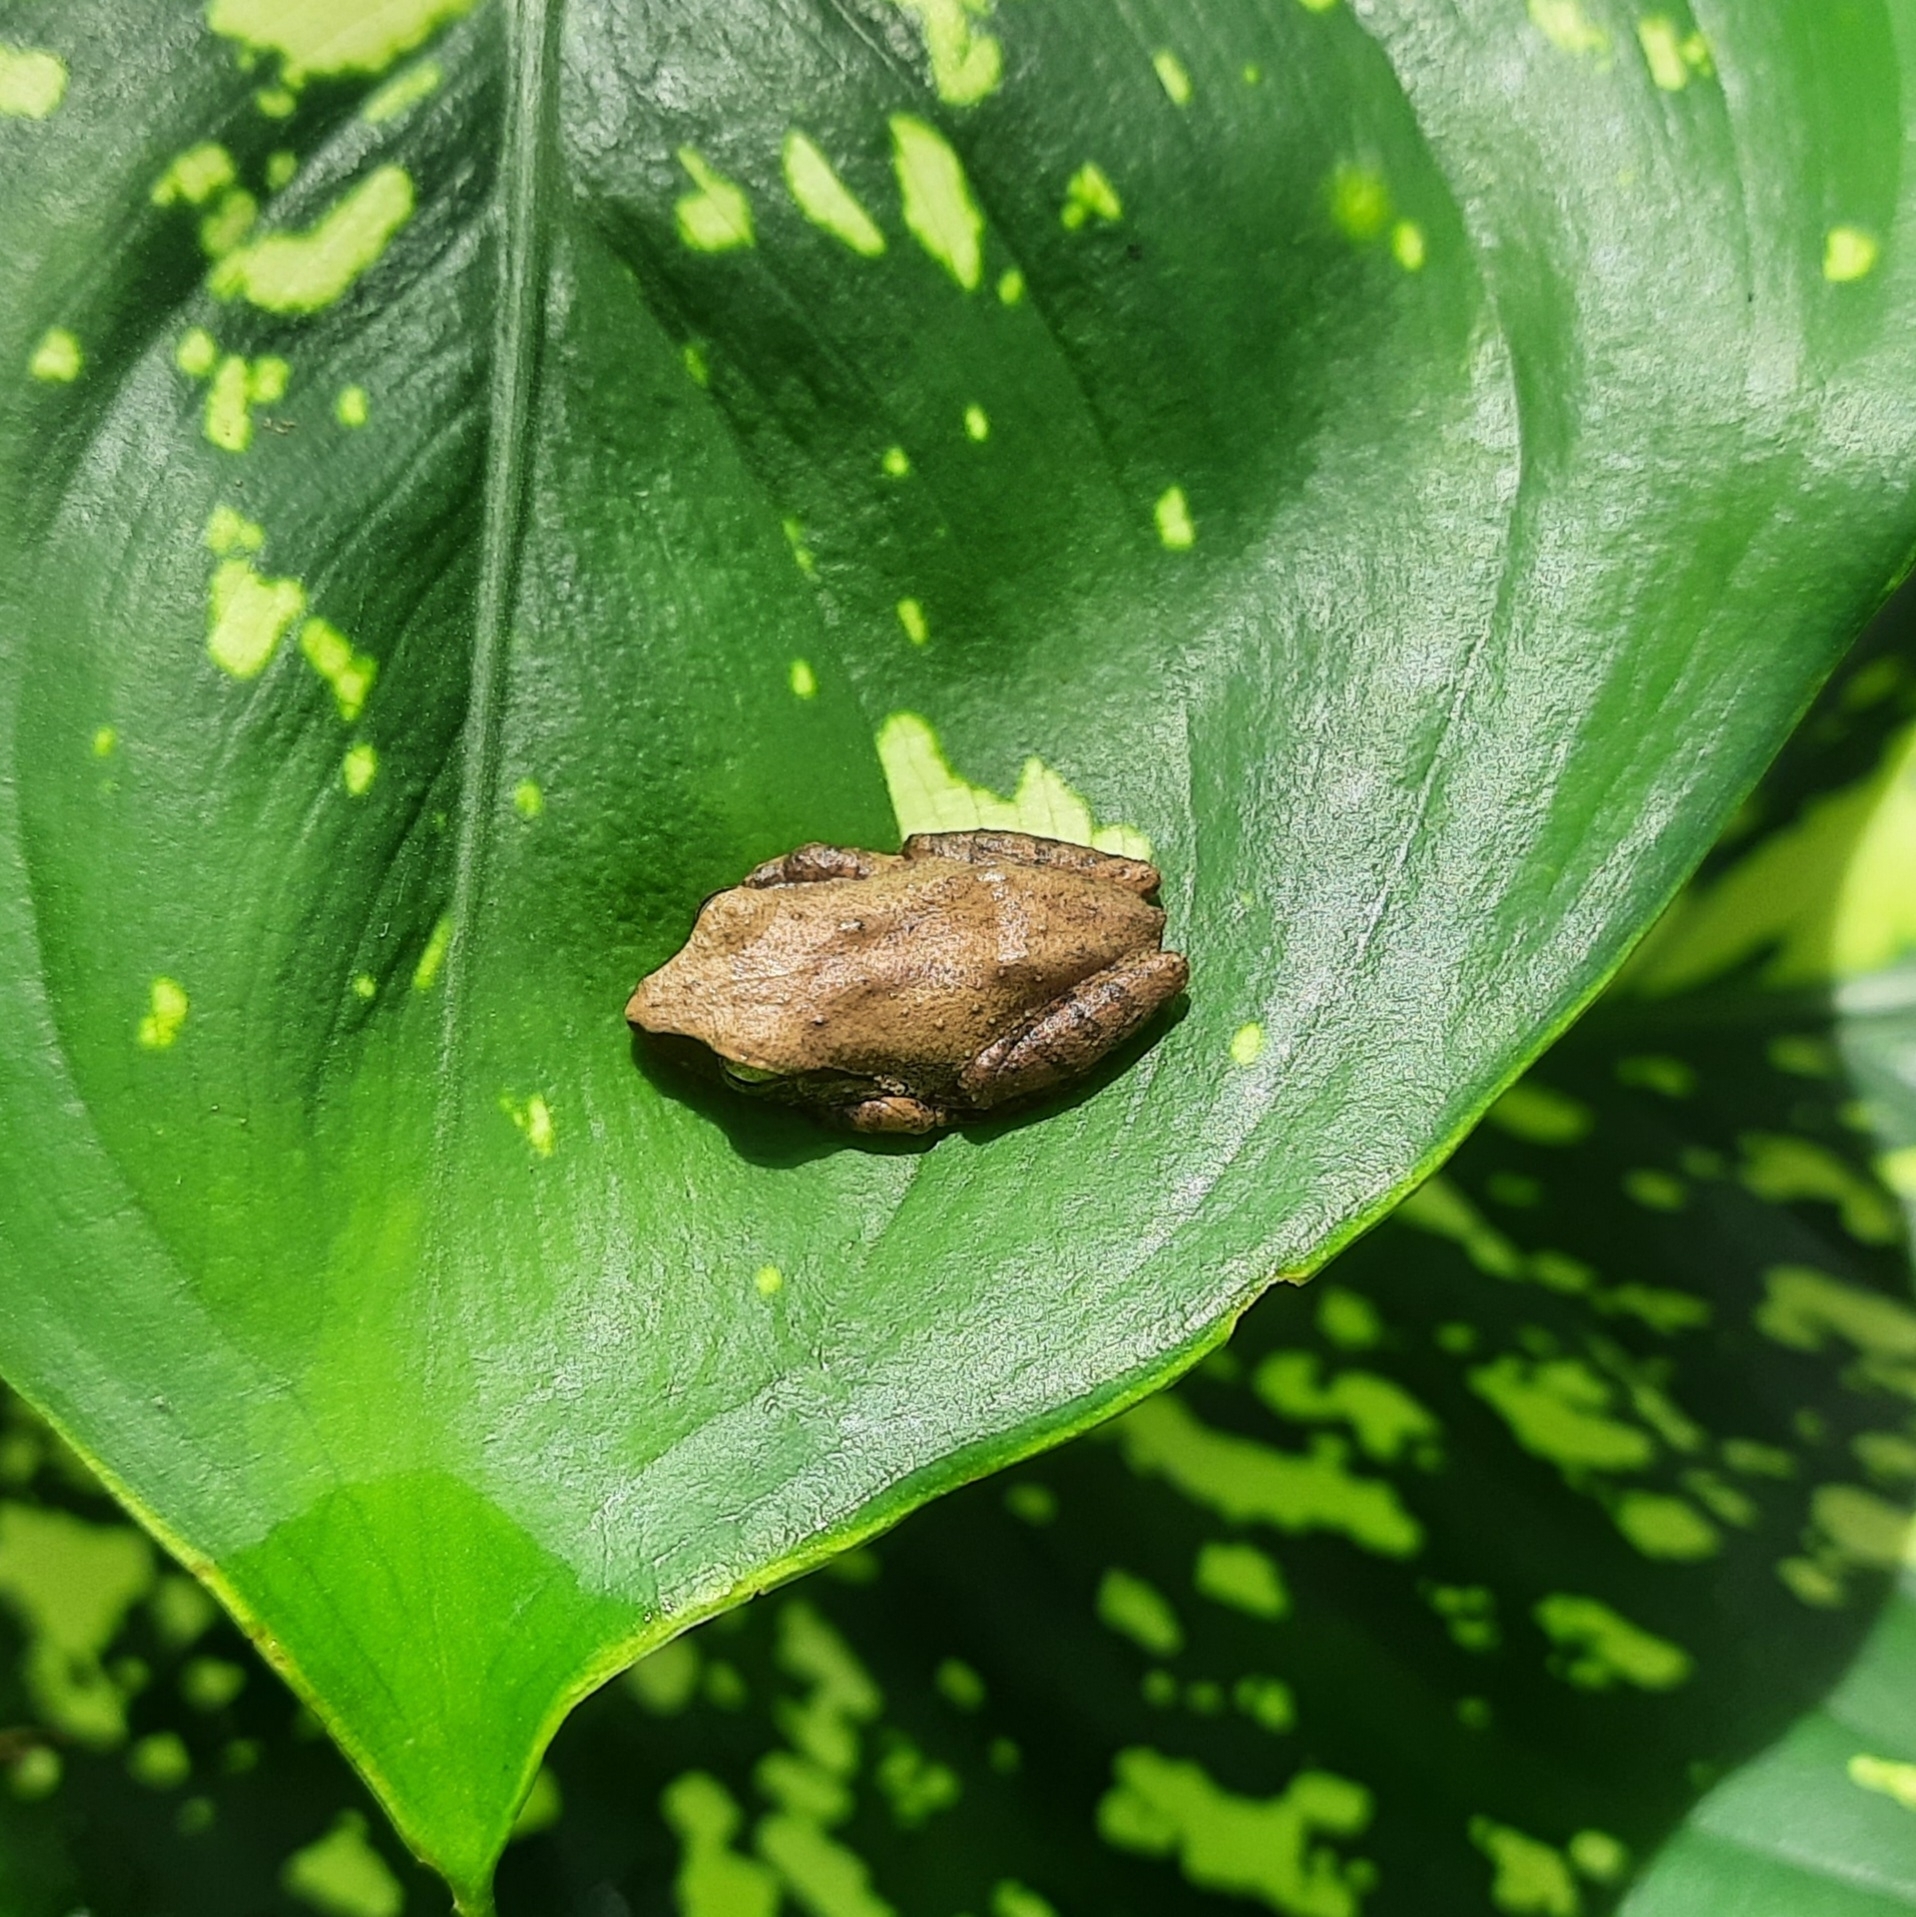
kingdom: Animalia
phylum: Chordata
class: Amphibia
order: Anura
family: Rhacophoridae
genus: Pseudophilautus
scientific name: Pseudophilautus wynaadensis
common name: Dark-eared bush frog
